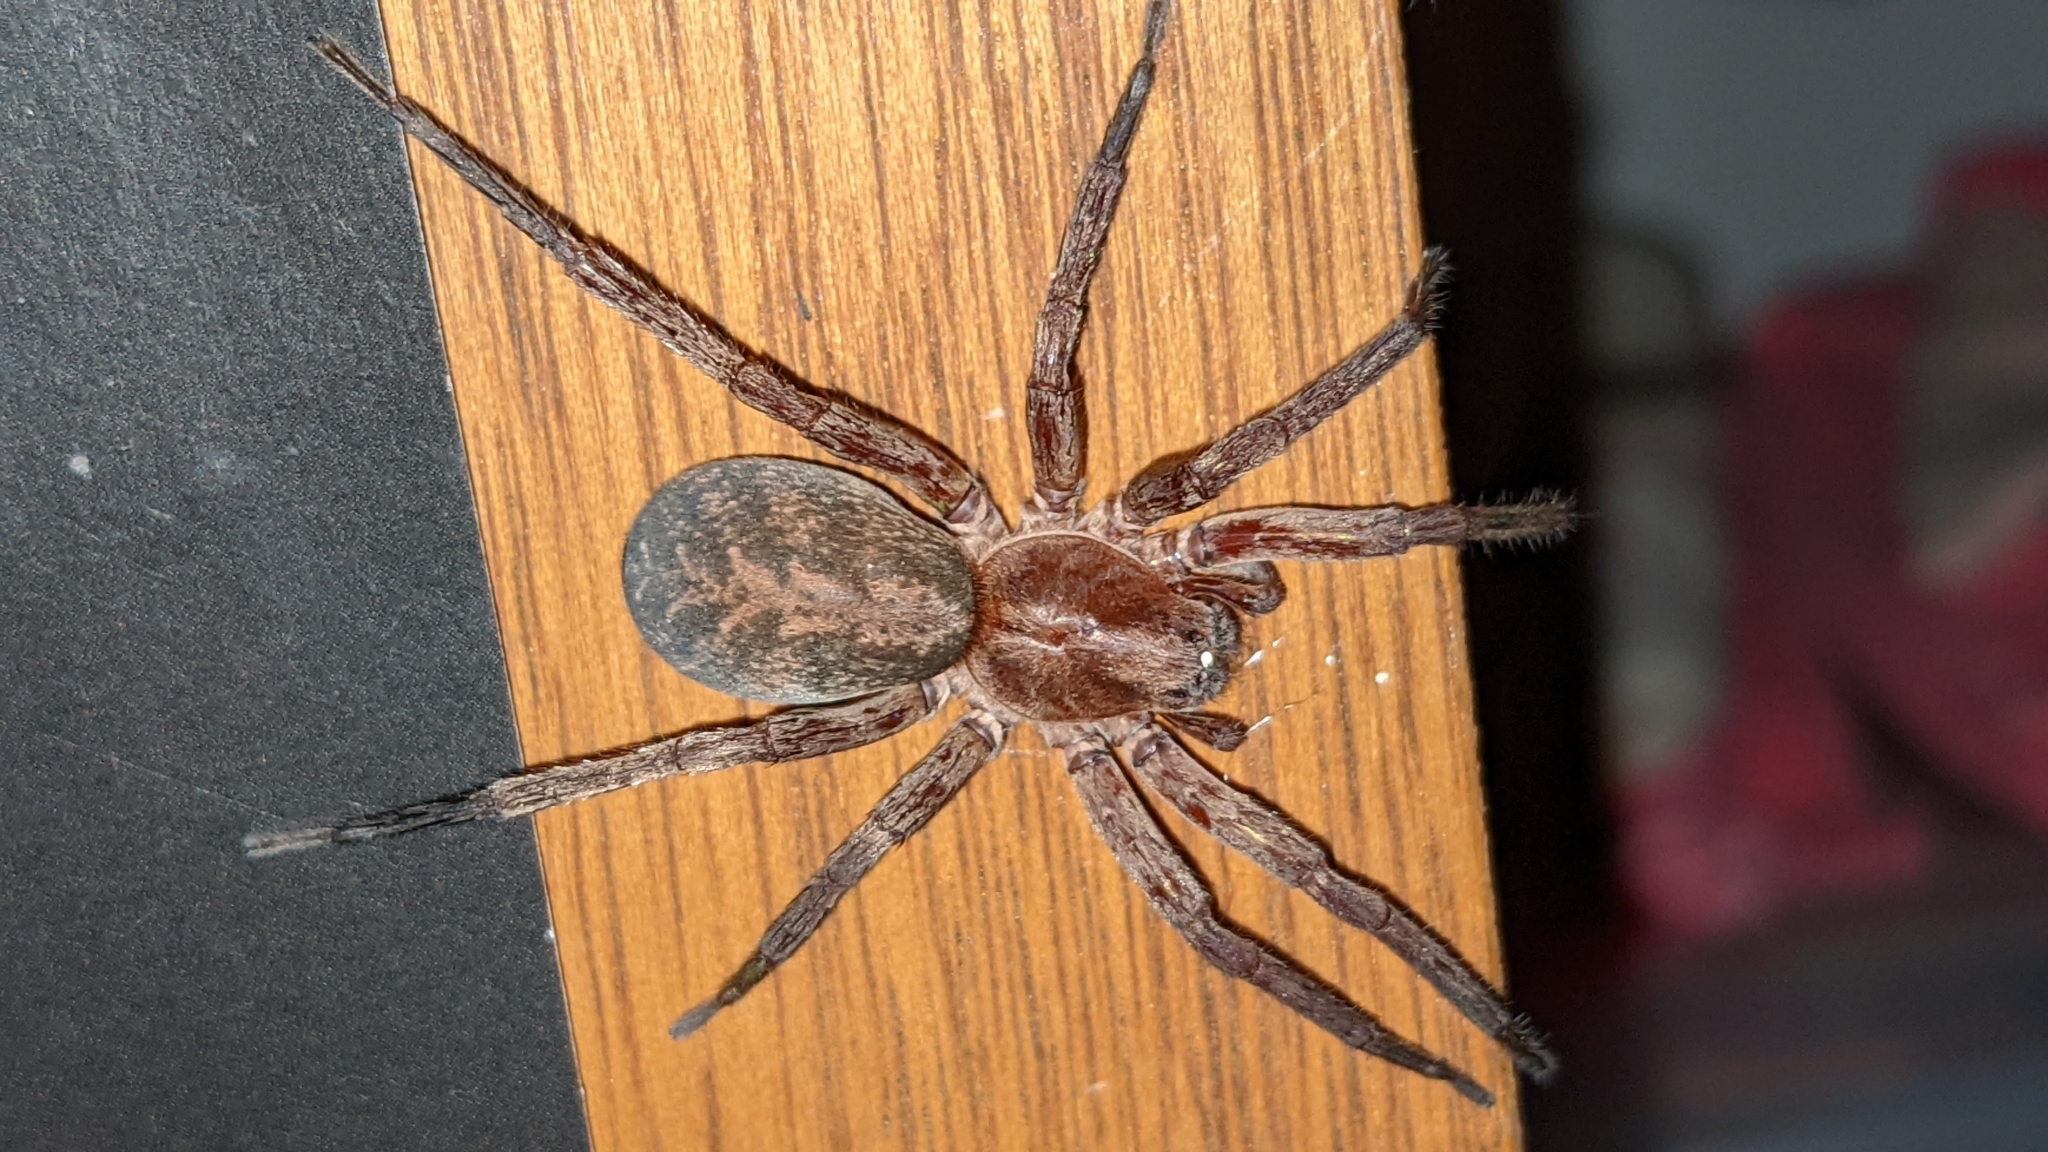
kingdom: Animalia
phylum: Arthropoda
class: Arachnida
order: Araneae
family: Ctenidae
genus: Ctenus
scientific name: Ctenus exlineae
